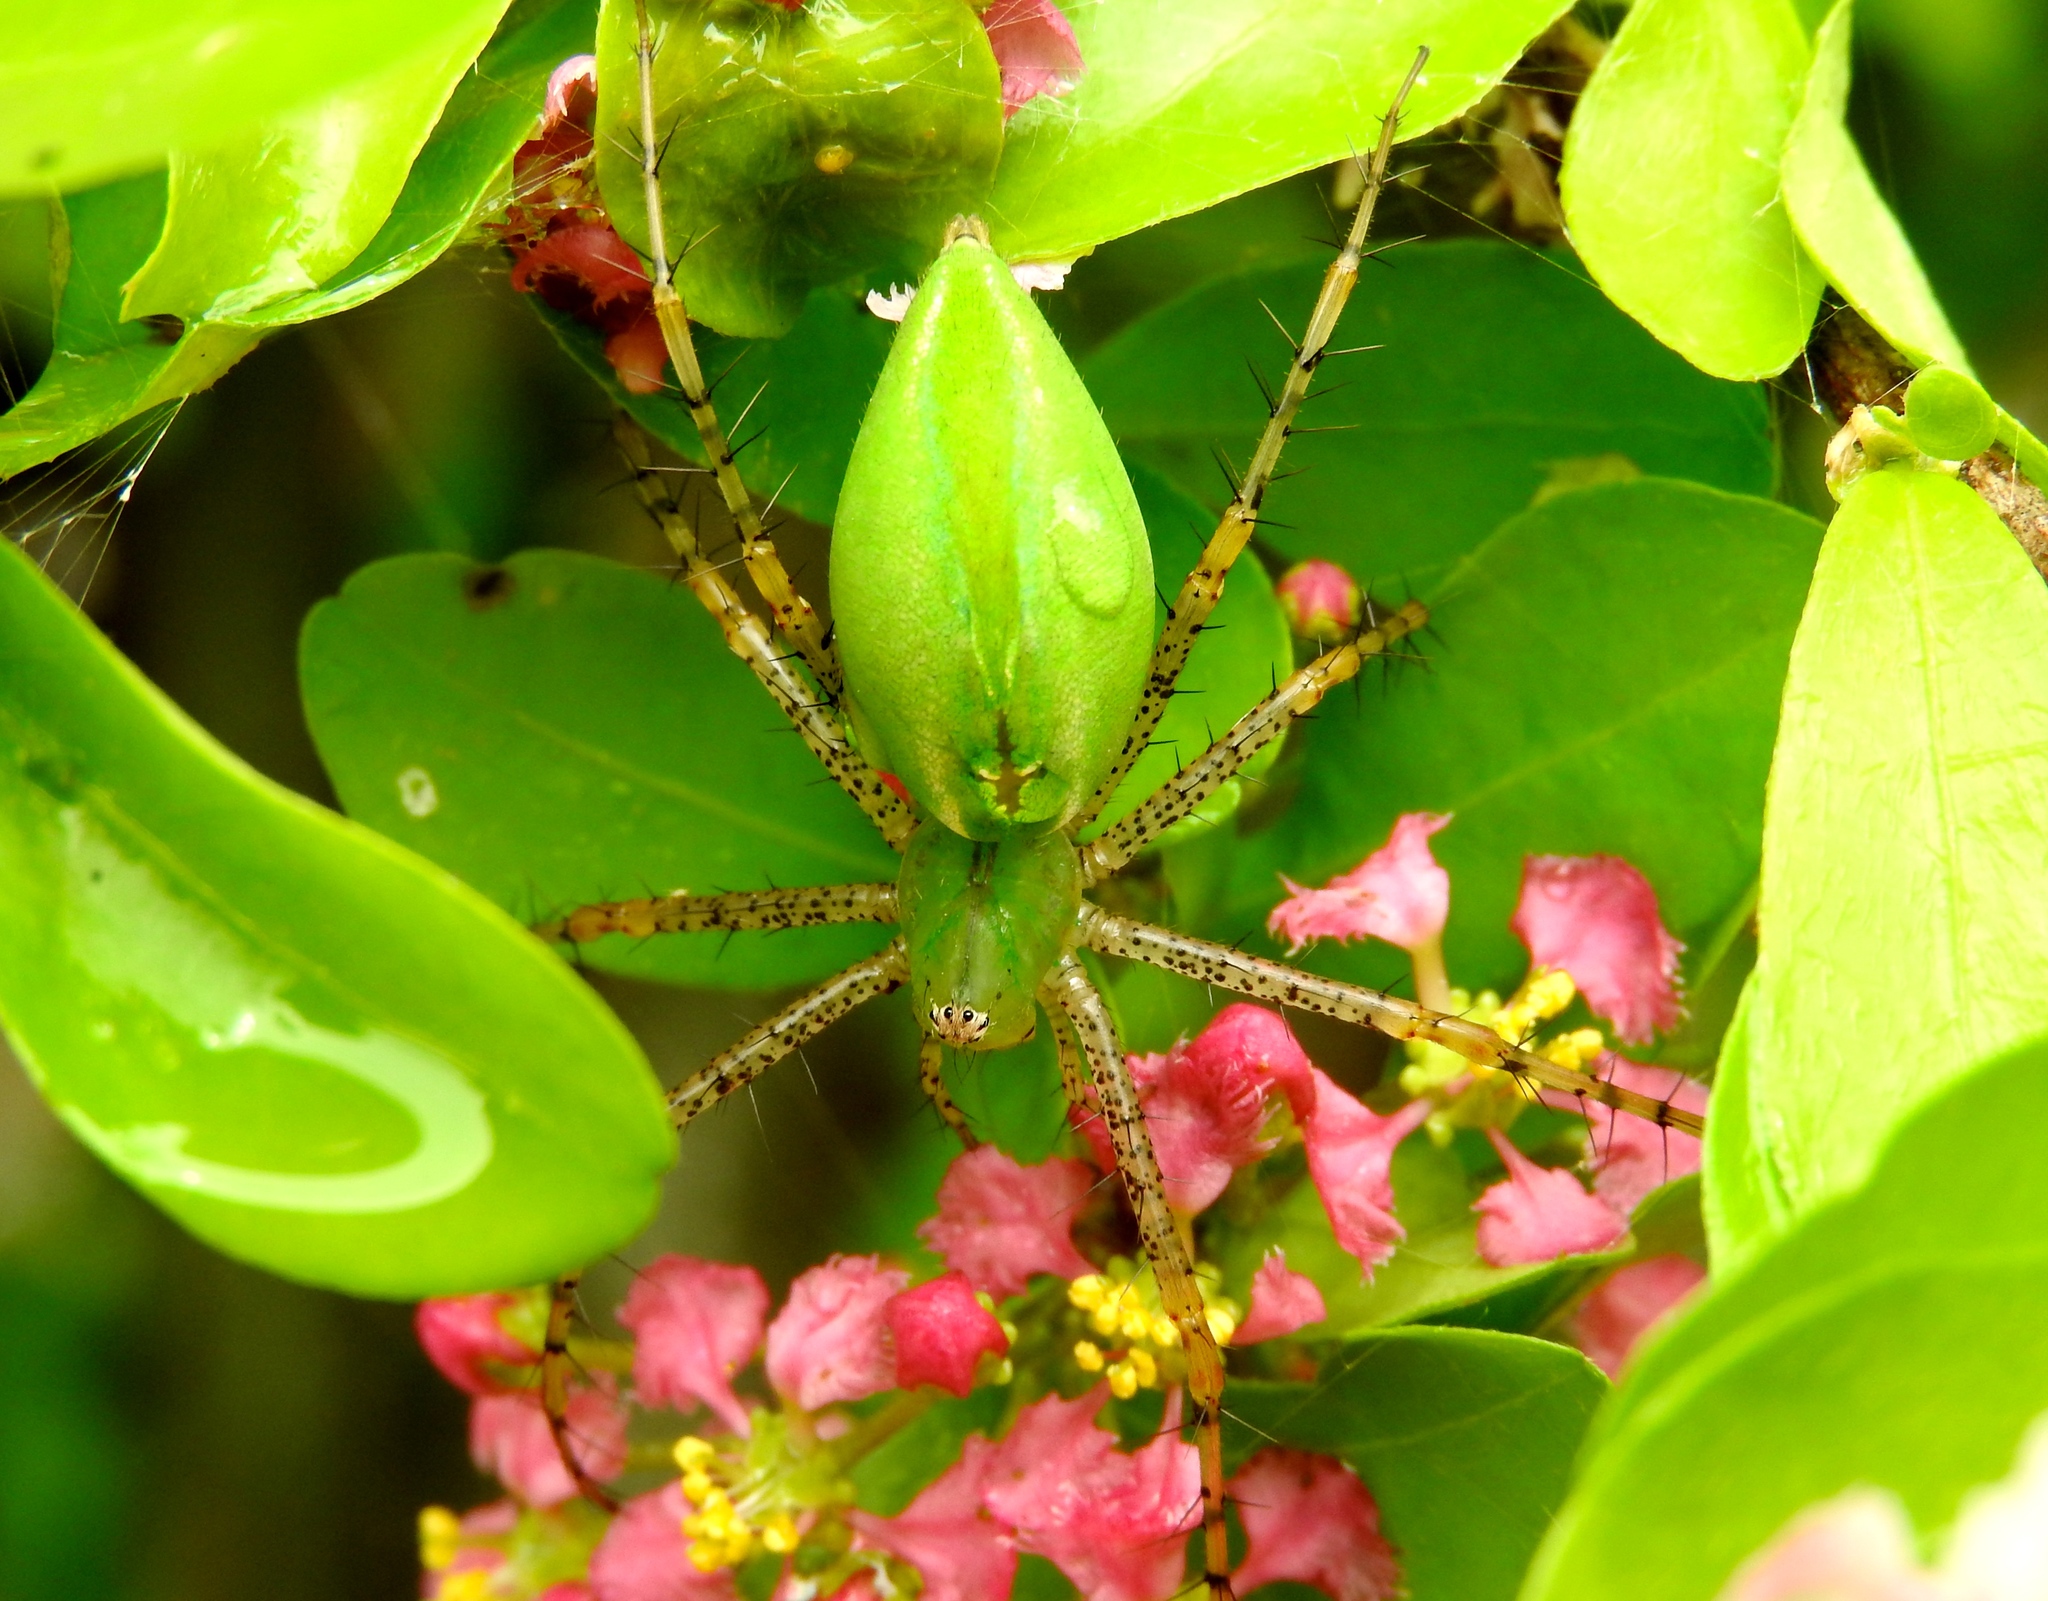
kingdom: Animalia
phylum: Arthropoda
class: Arachnida
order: Araneae
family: Oxyopidae
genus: Peucetia
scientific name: Peucetia
